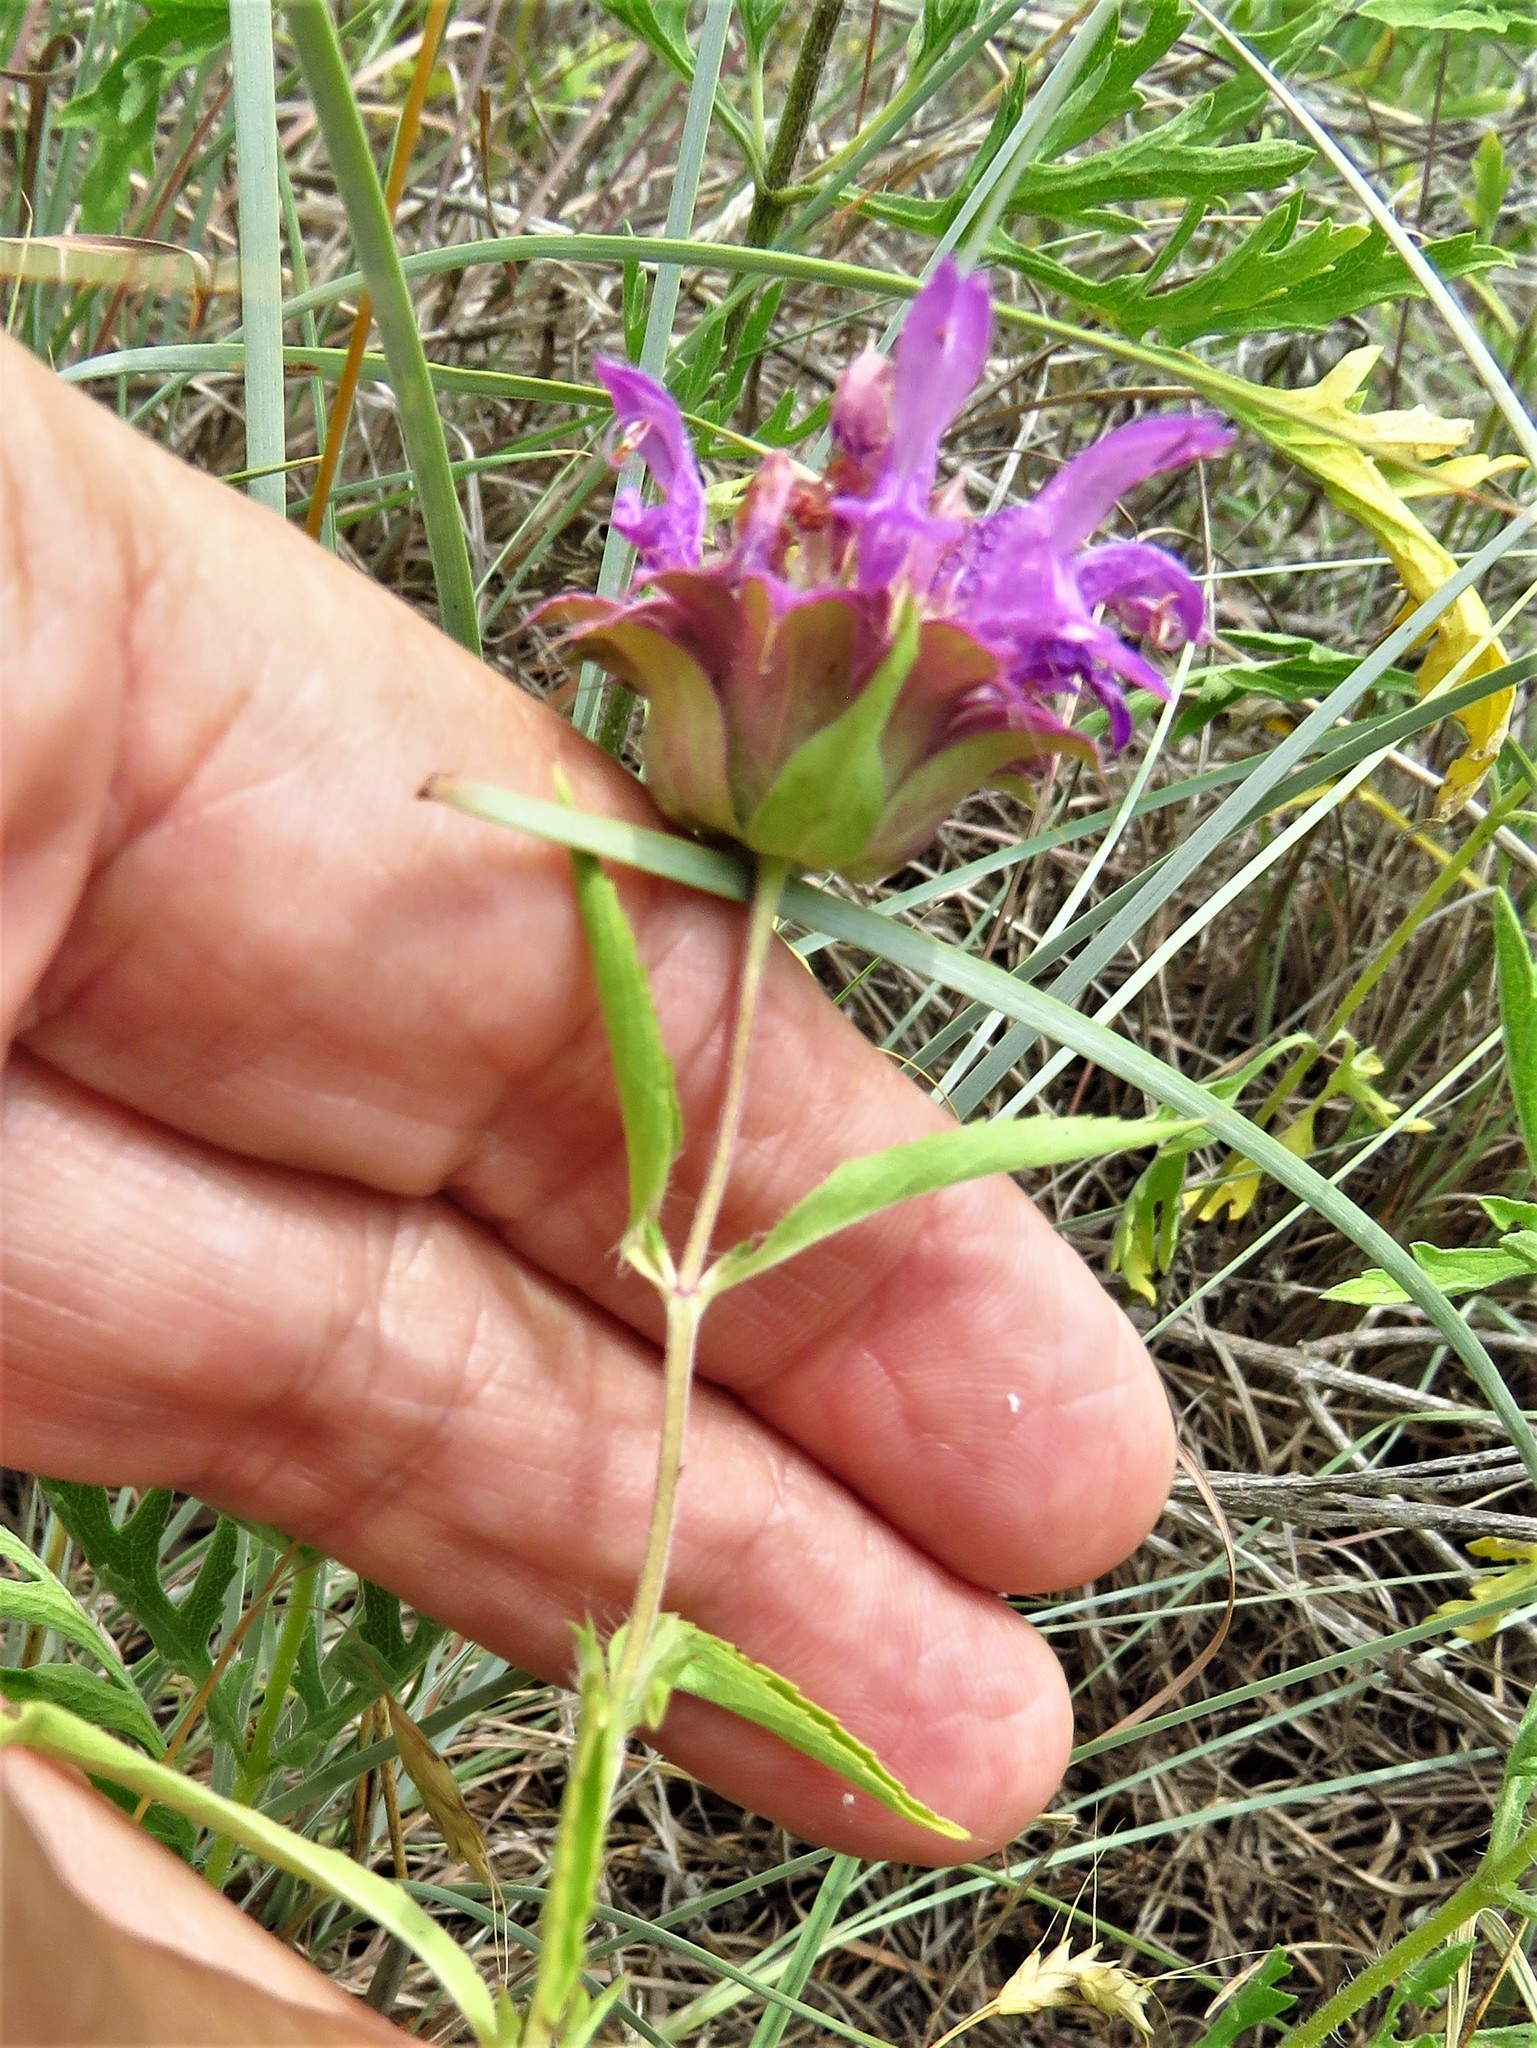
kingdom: Plantae
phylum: Tracheophyta
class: Magnoliopsida
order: Lamiales
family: Lamiaceae
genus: Monarda
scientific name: Monarda citriodora
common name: Lemon beebalm
